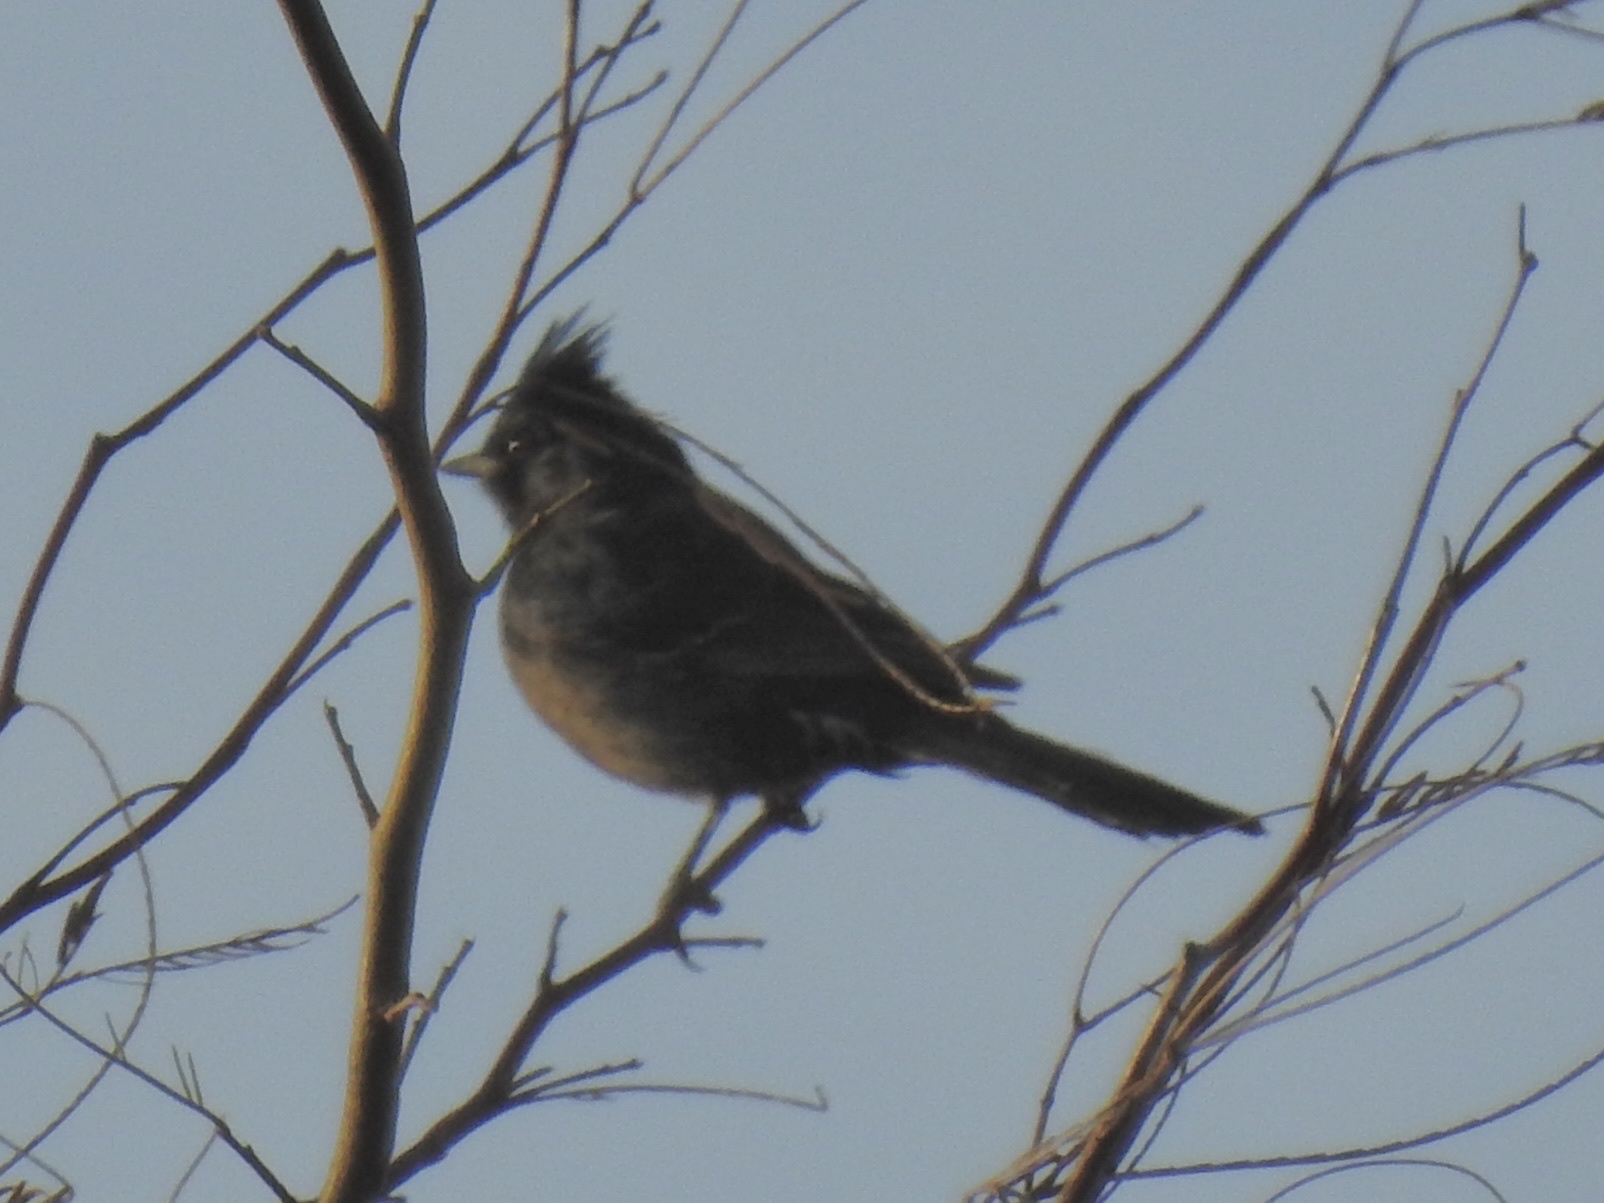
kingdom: Animalia
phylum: Chordata
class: Aves
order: Passeriformes
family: Ptilogonatidae
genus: Phainopepla
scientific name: Phainopepla nitens
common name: Phainopepla
